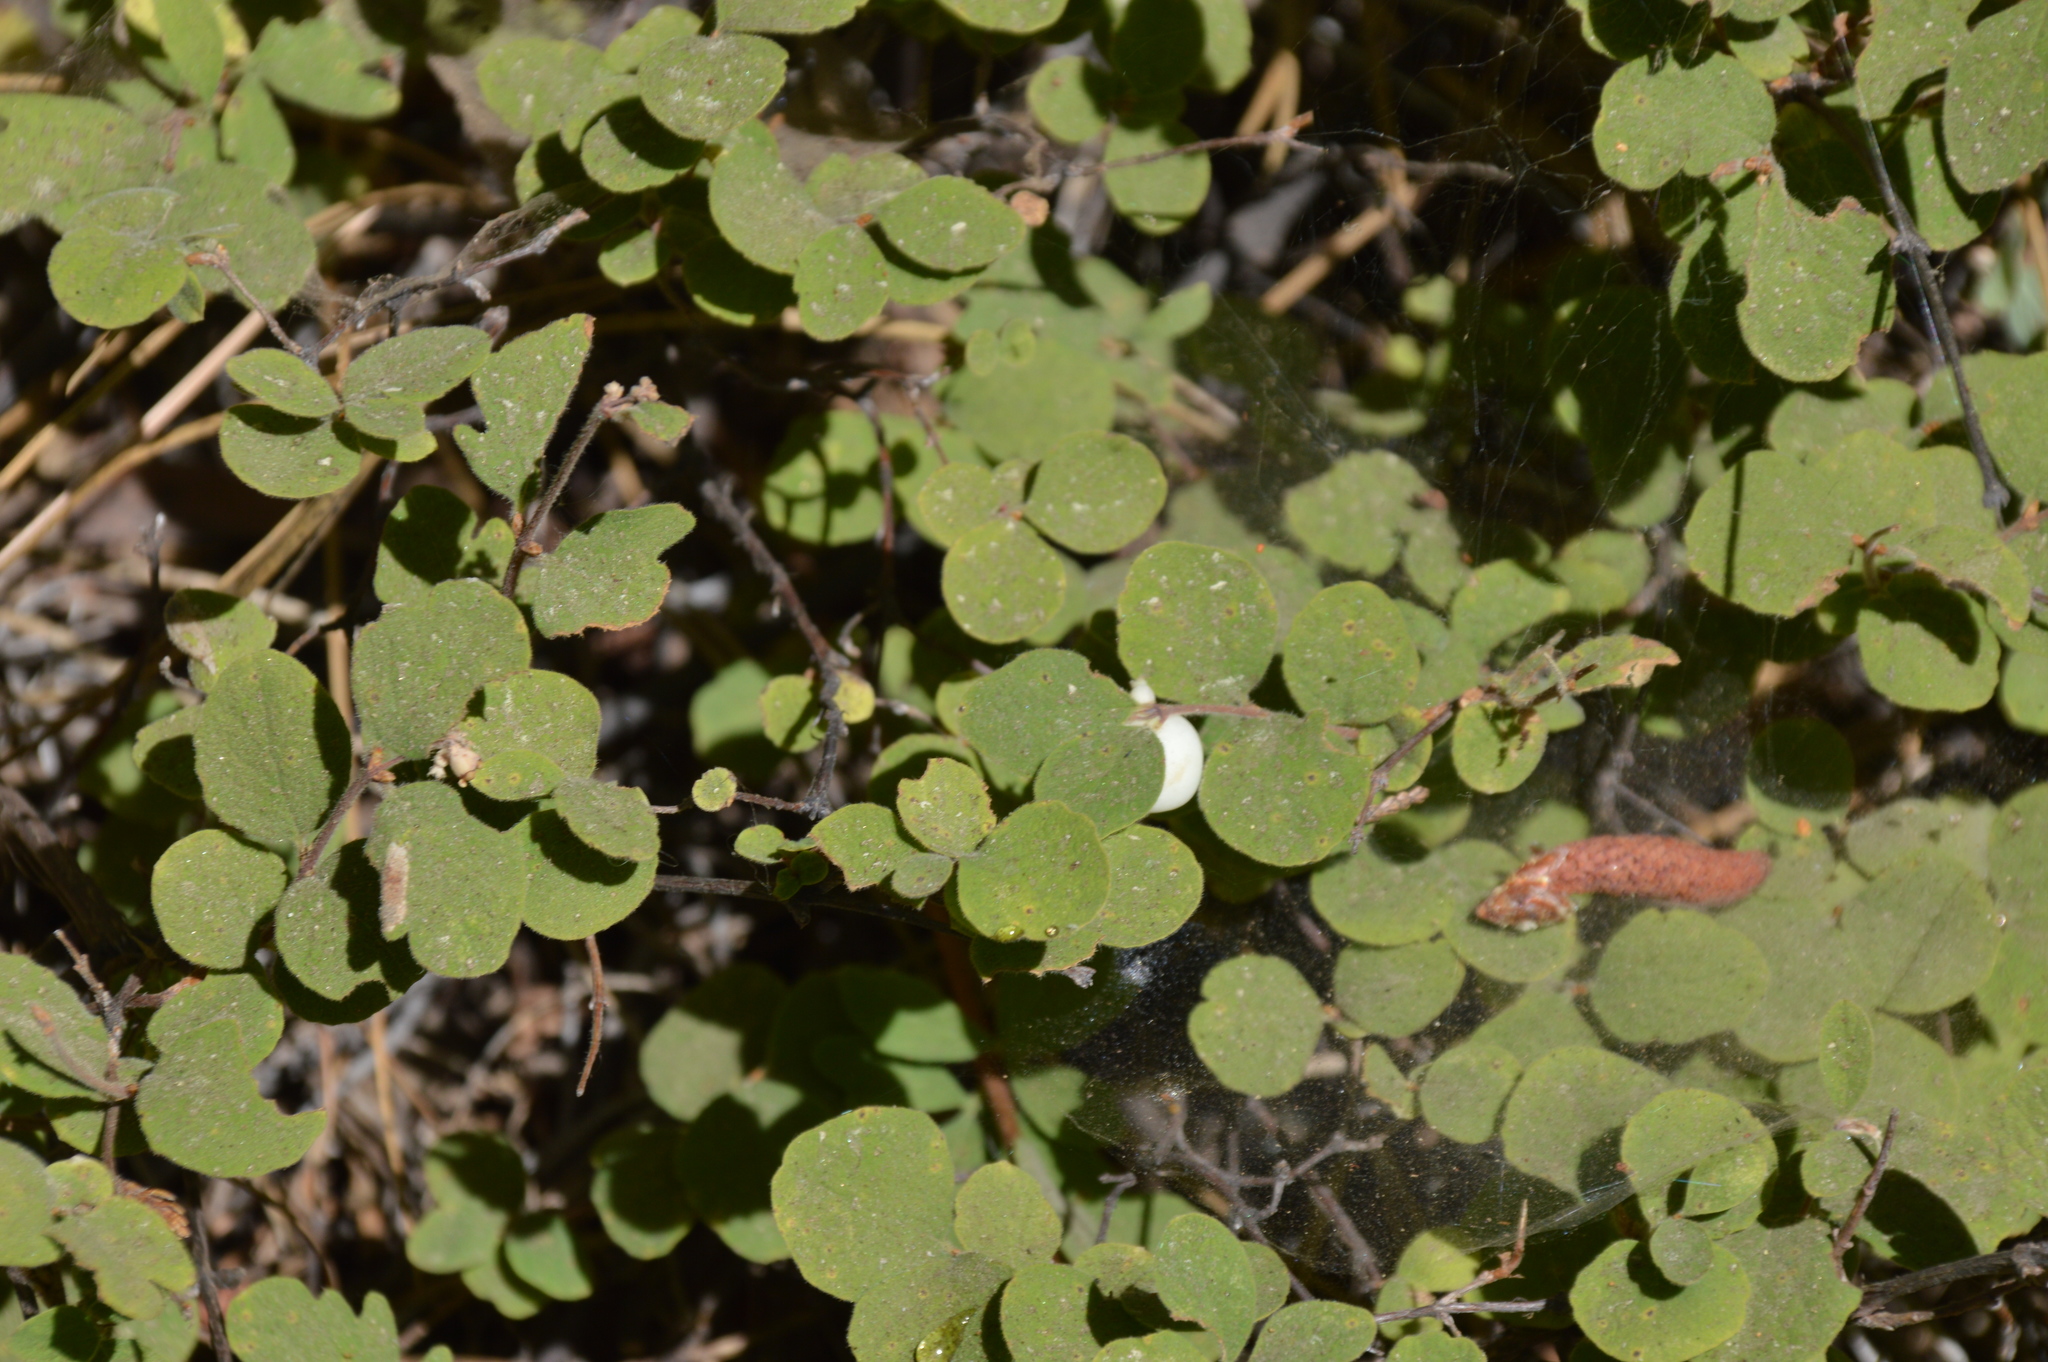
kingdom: Plantae
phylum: Tracheophyta
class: Magnoliopsida
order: Dipsacales
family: Caprifoliaceae
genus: Symphoricarpos
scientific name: Symphoricarpos mollis
